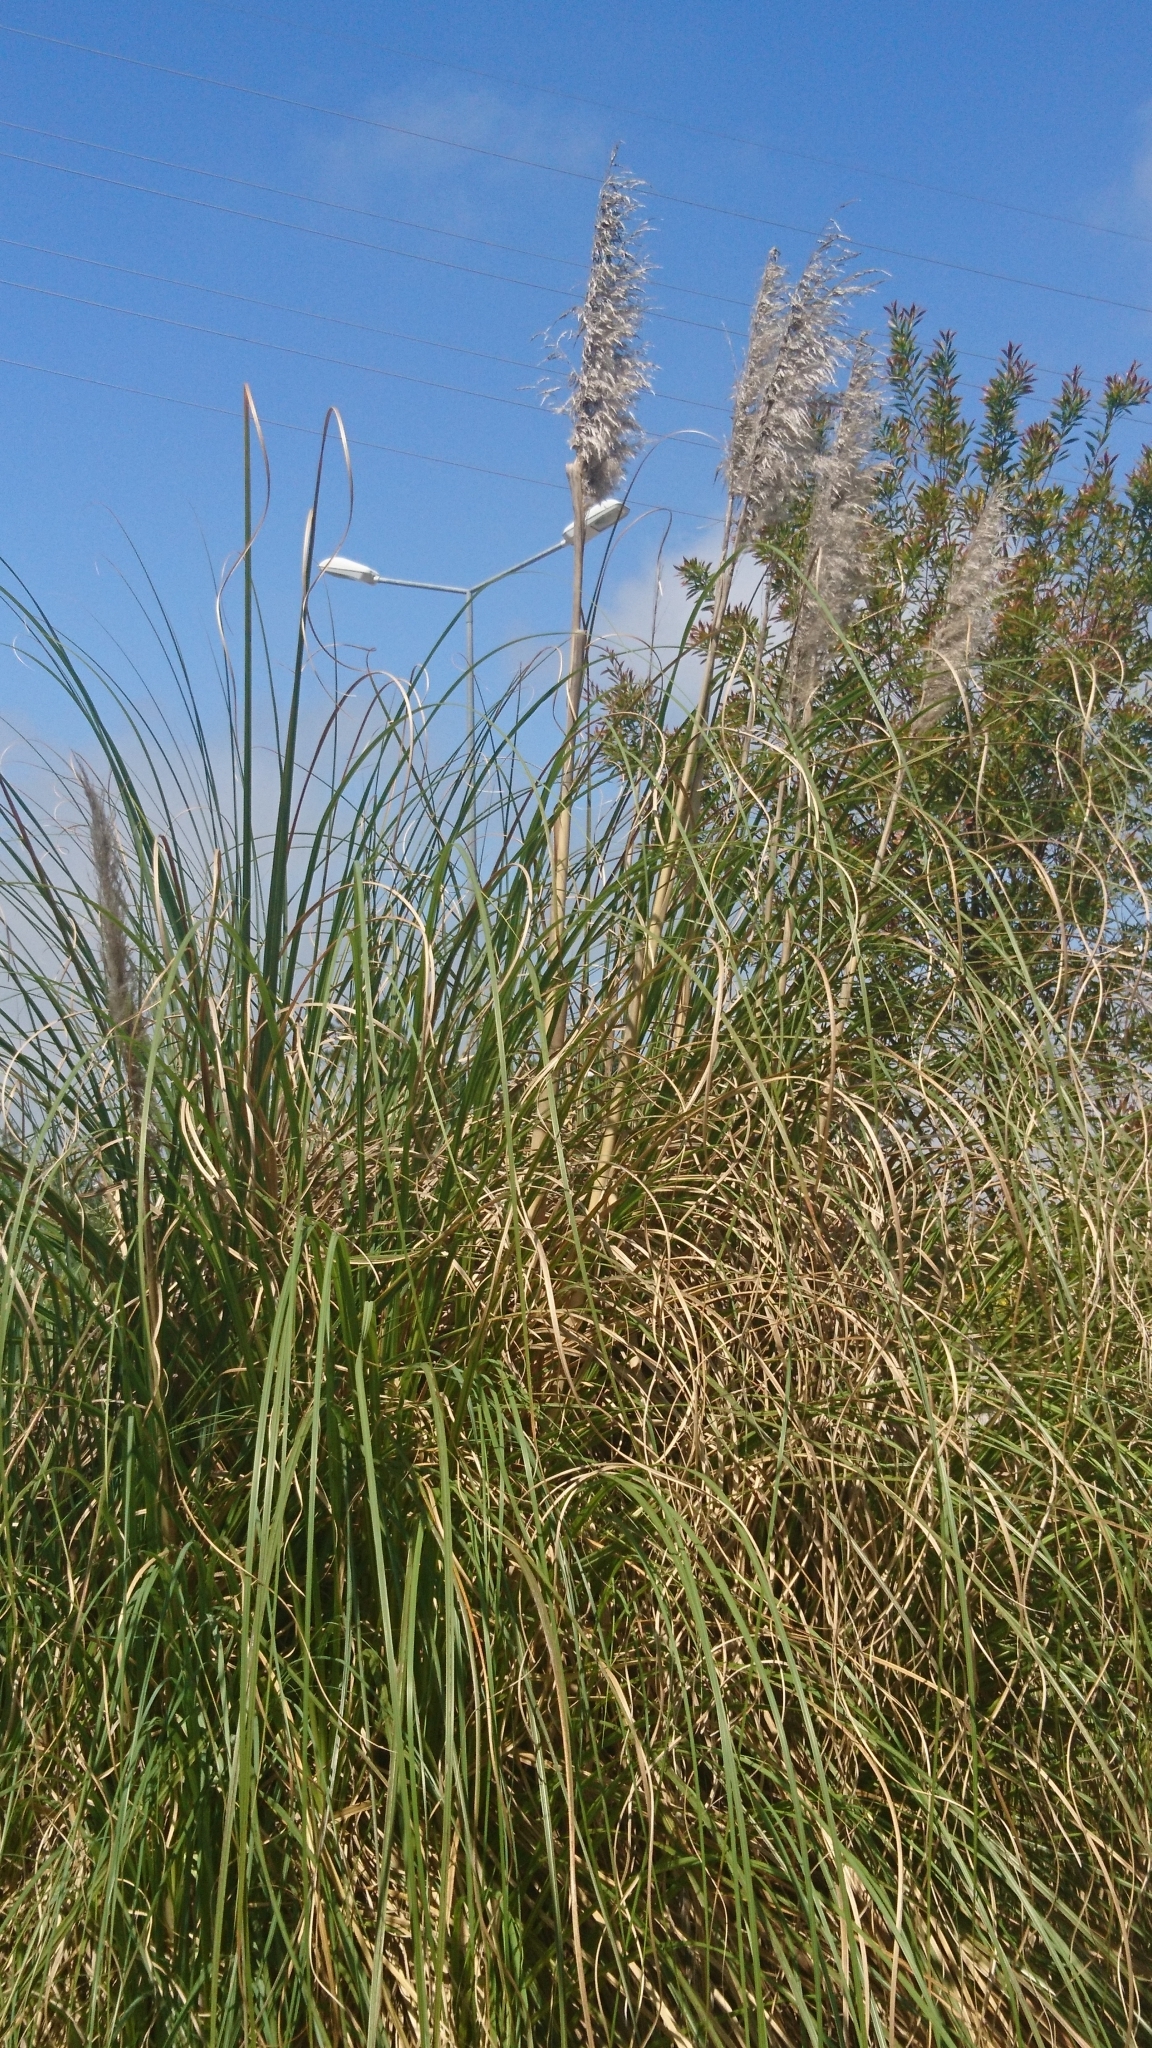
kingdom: Plantae
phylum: Tracheophyta
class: Liliopsida
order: Poales
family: Poaceae
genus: Cortaderia
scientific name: Cortaderia selloana
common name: Uruguayan pampas grass
